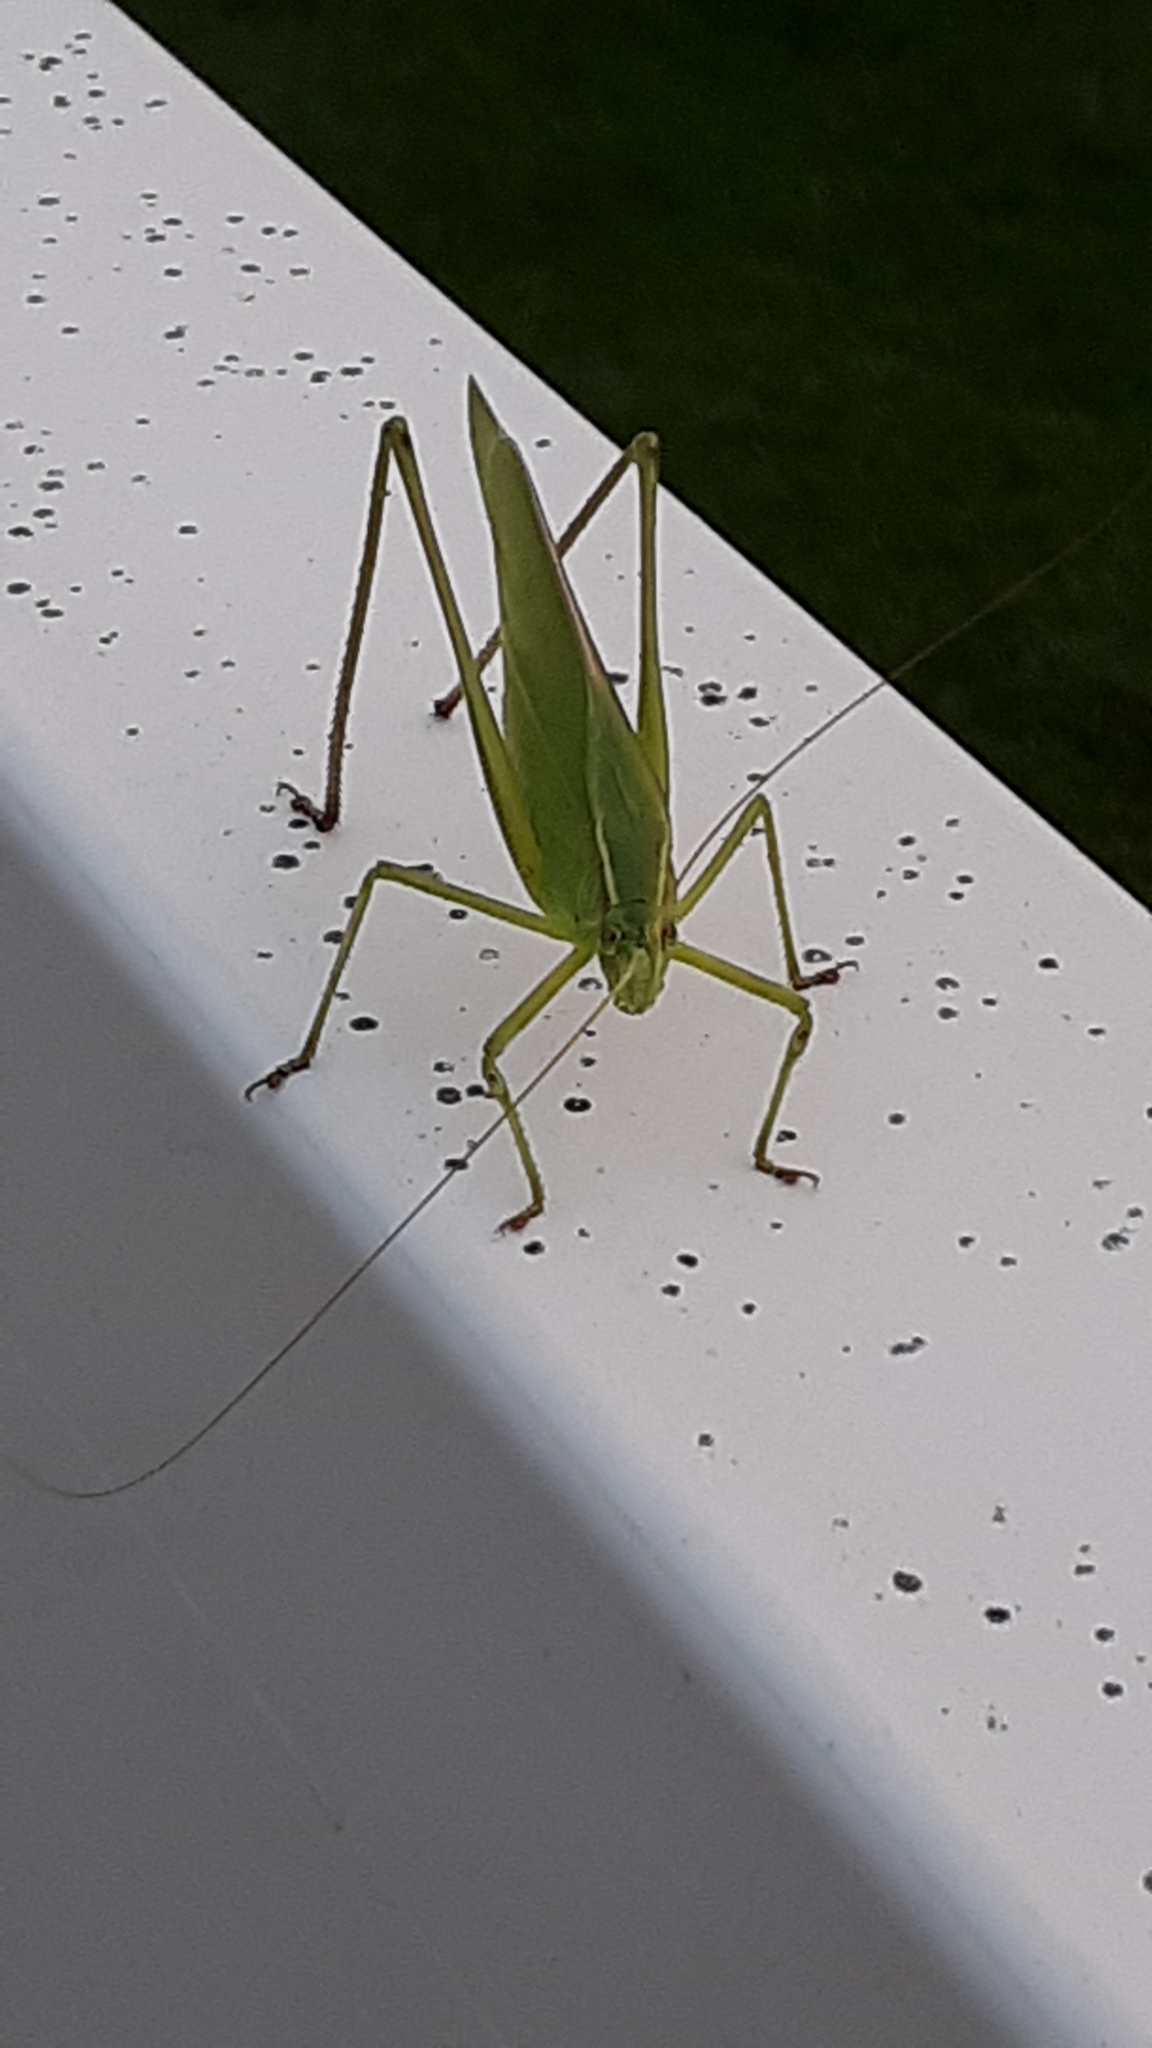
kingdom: Animalia
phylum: Arthropoda
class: Insecta
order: Orthoptera
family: Tettigoniidae
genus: Scudderia
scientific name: Scudderia
